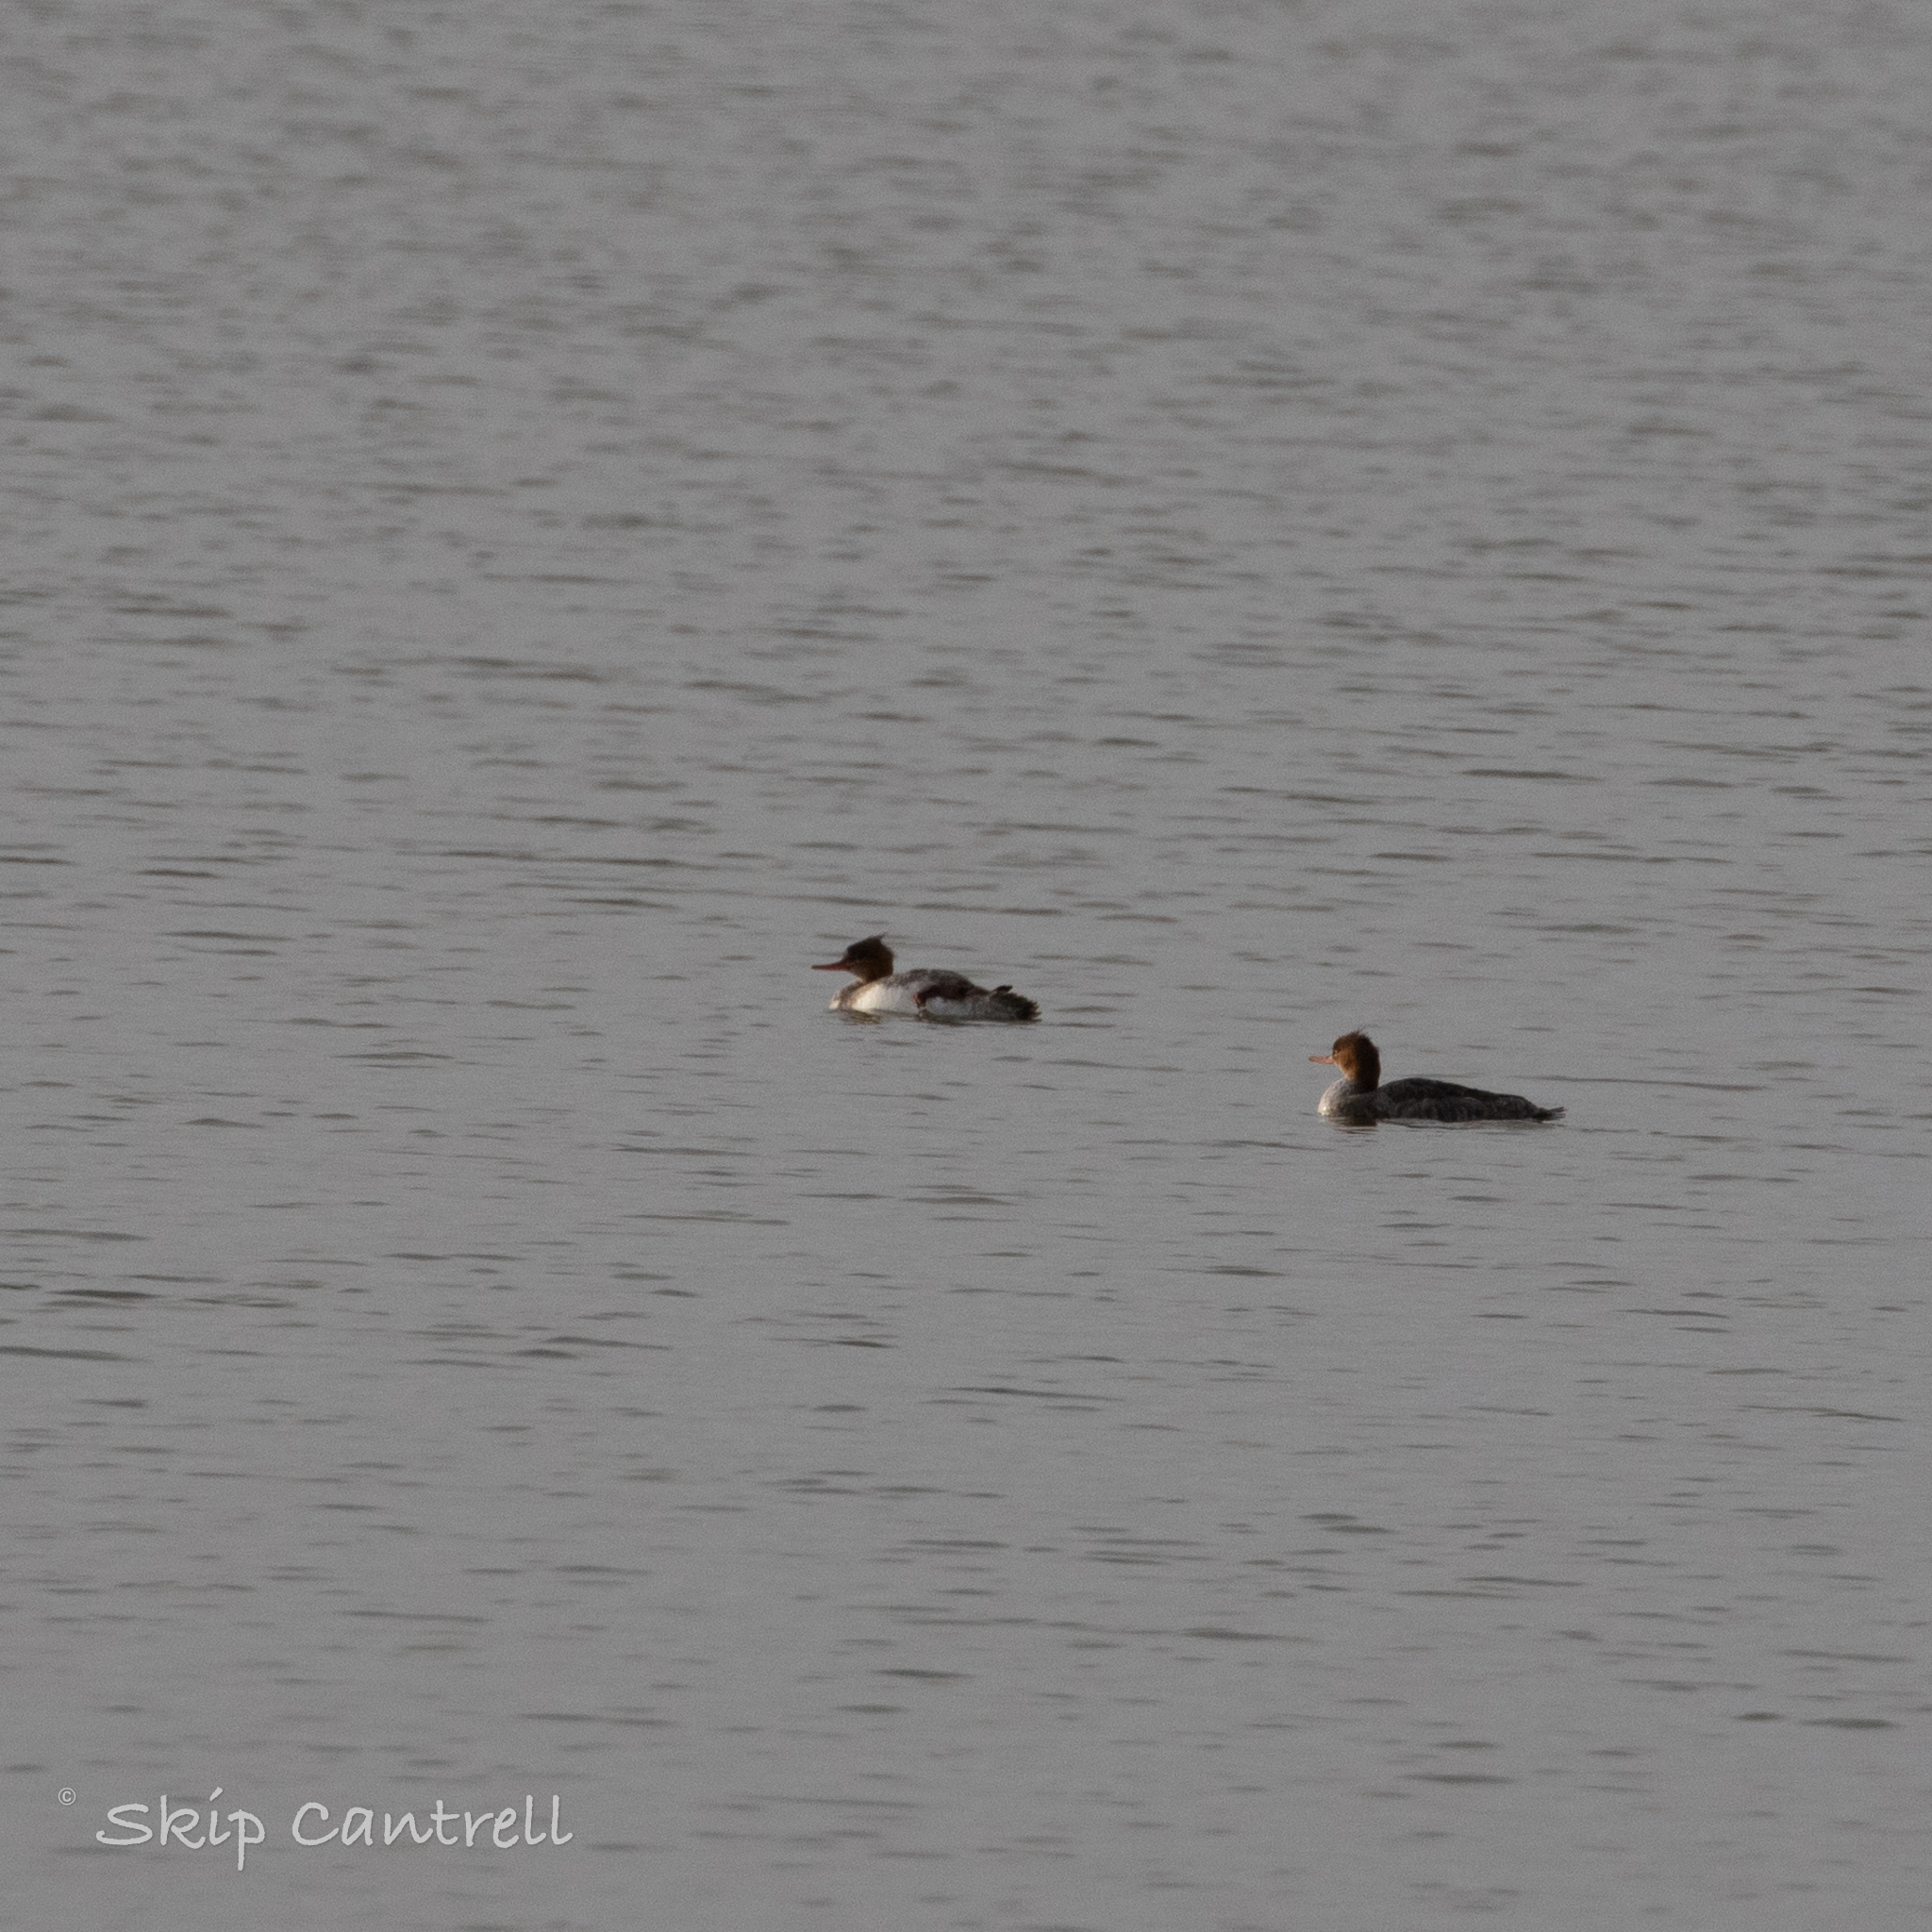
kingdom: Animalia
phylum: Chordata
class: Aves
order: Anseriformes
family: Anatidae
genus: Mergus
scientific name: Mergus serrator
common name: Red-breasted merganser
